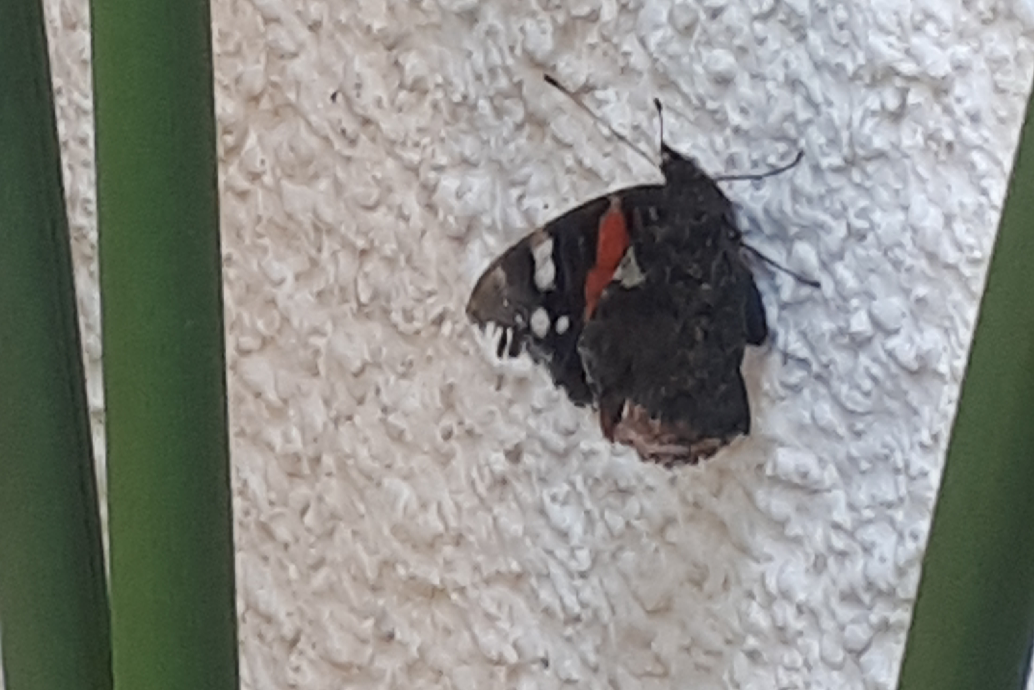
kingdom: Animalia
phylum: Arthropoda
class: Insecta
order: Lepidoptera
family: Nymphalidae
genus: Vanessa
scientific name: Vanessa atalanta
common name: Red admiral
